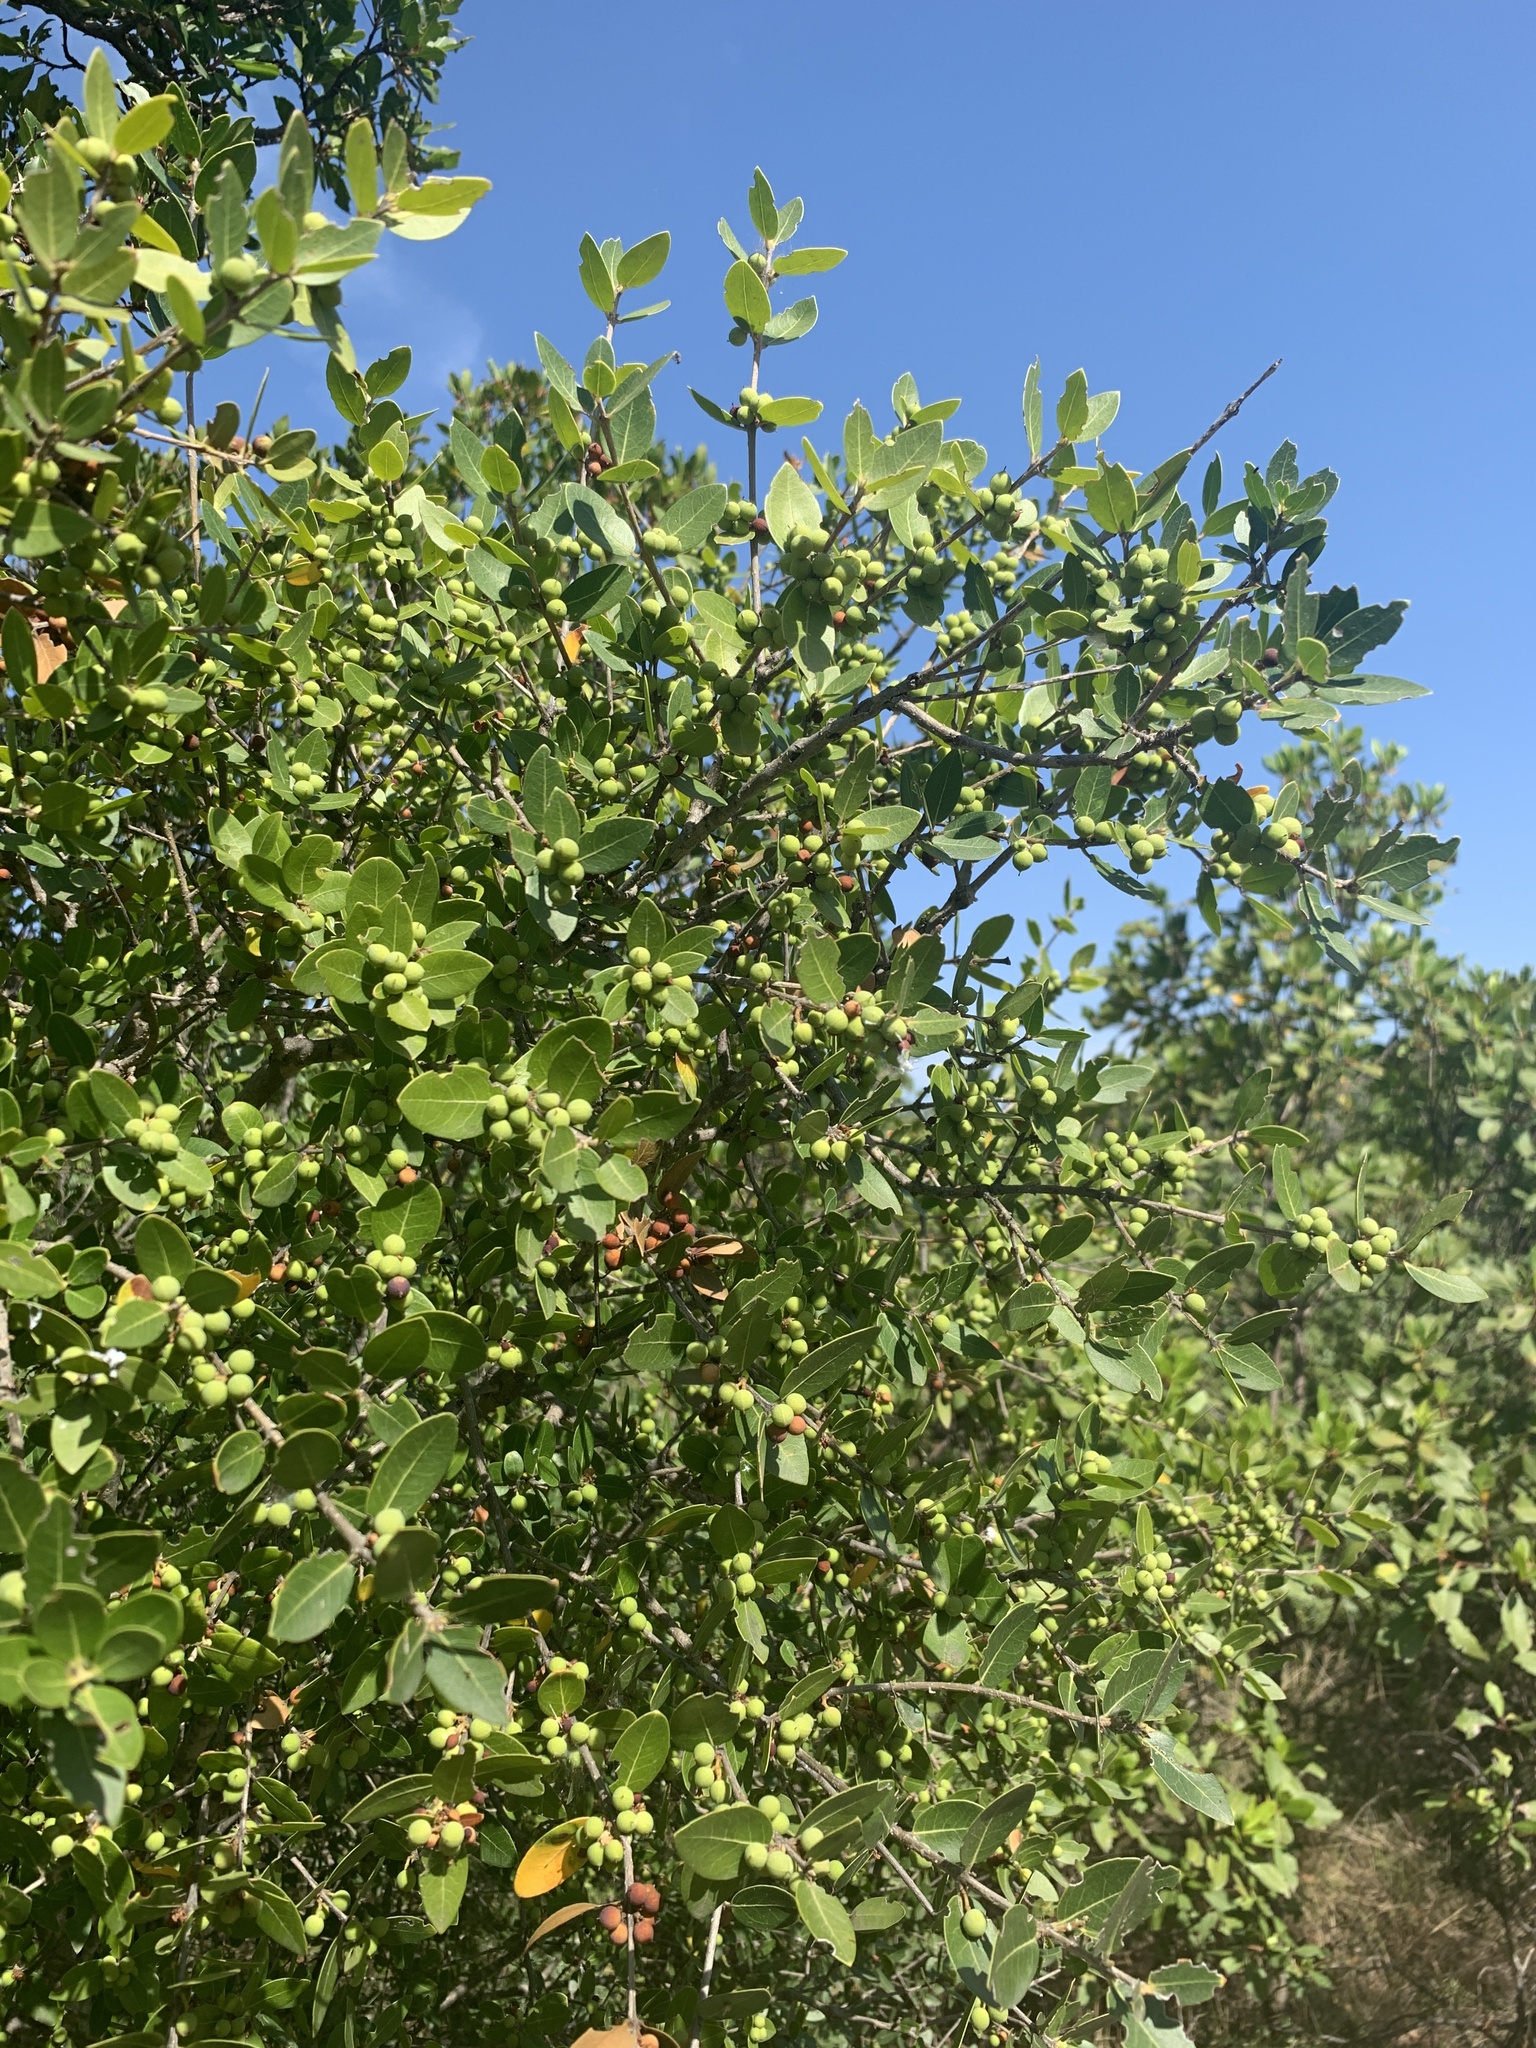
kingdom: Plantae
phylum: Tracheophyta
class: Magnoliopsida
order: Lamiales
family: Oleaceae
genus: Phillyrea
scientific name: Phillyrea latifolia
